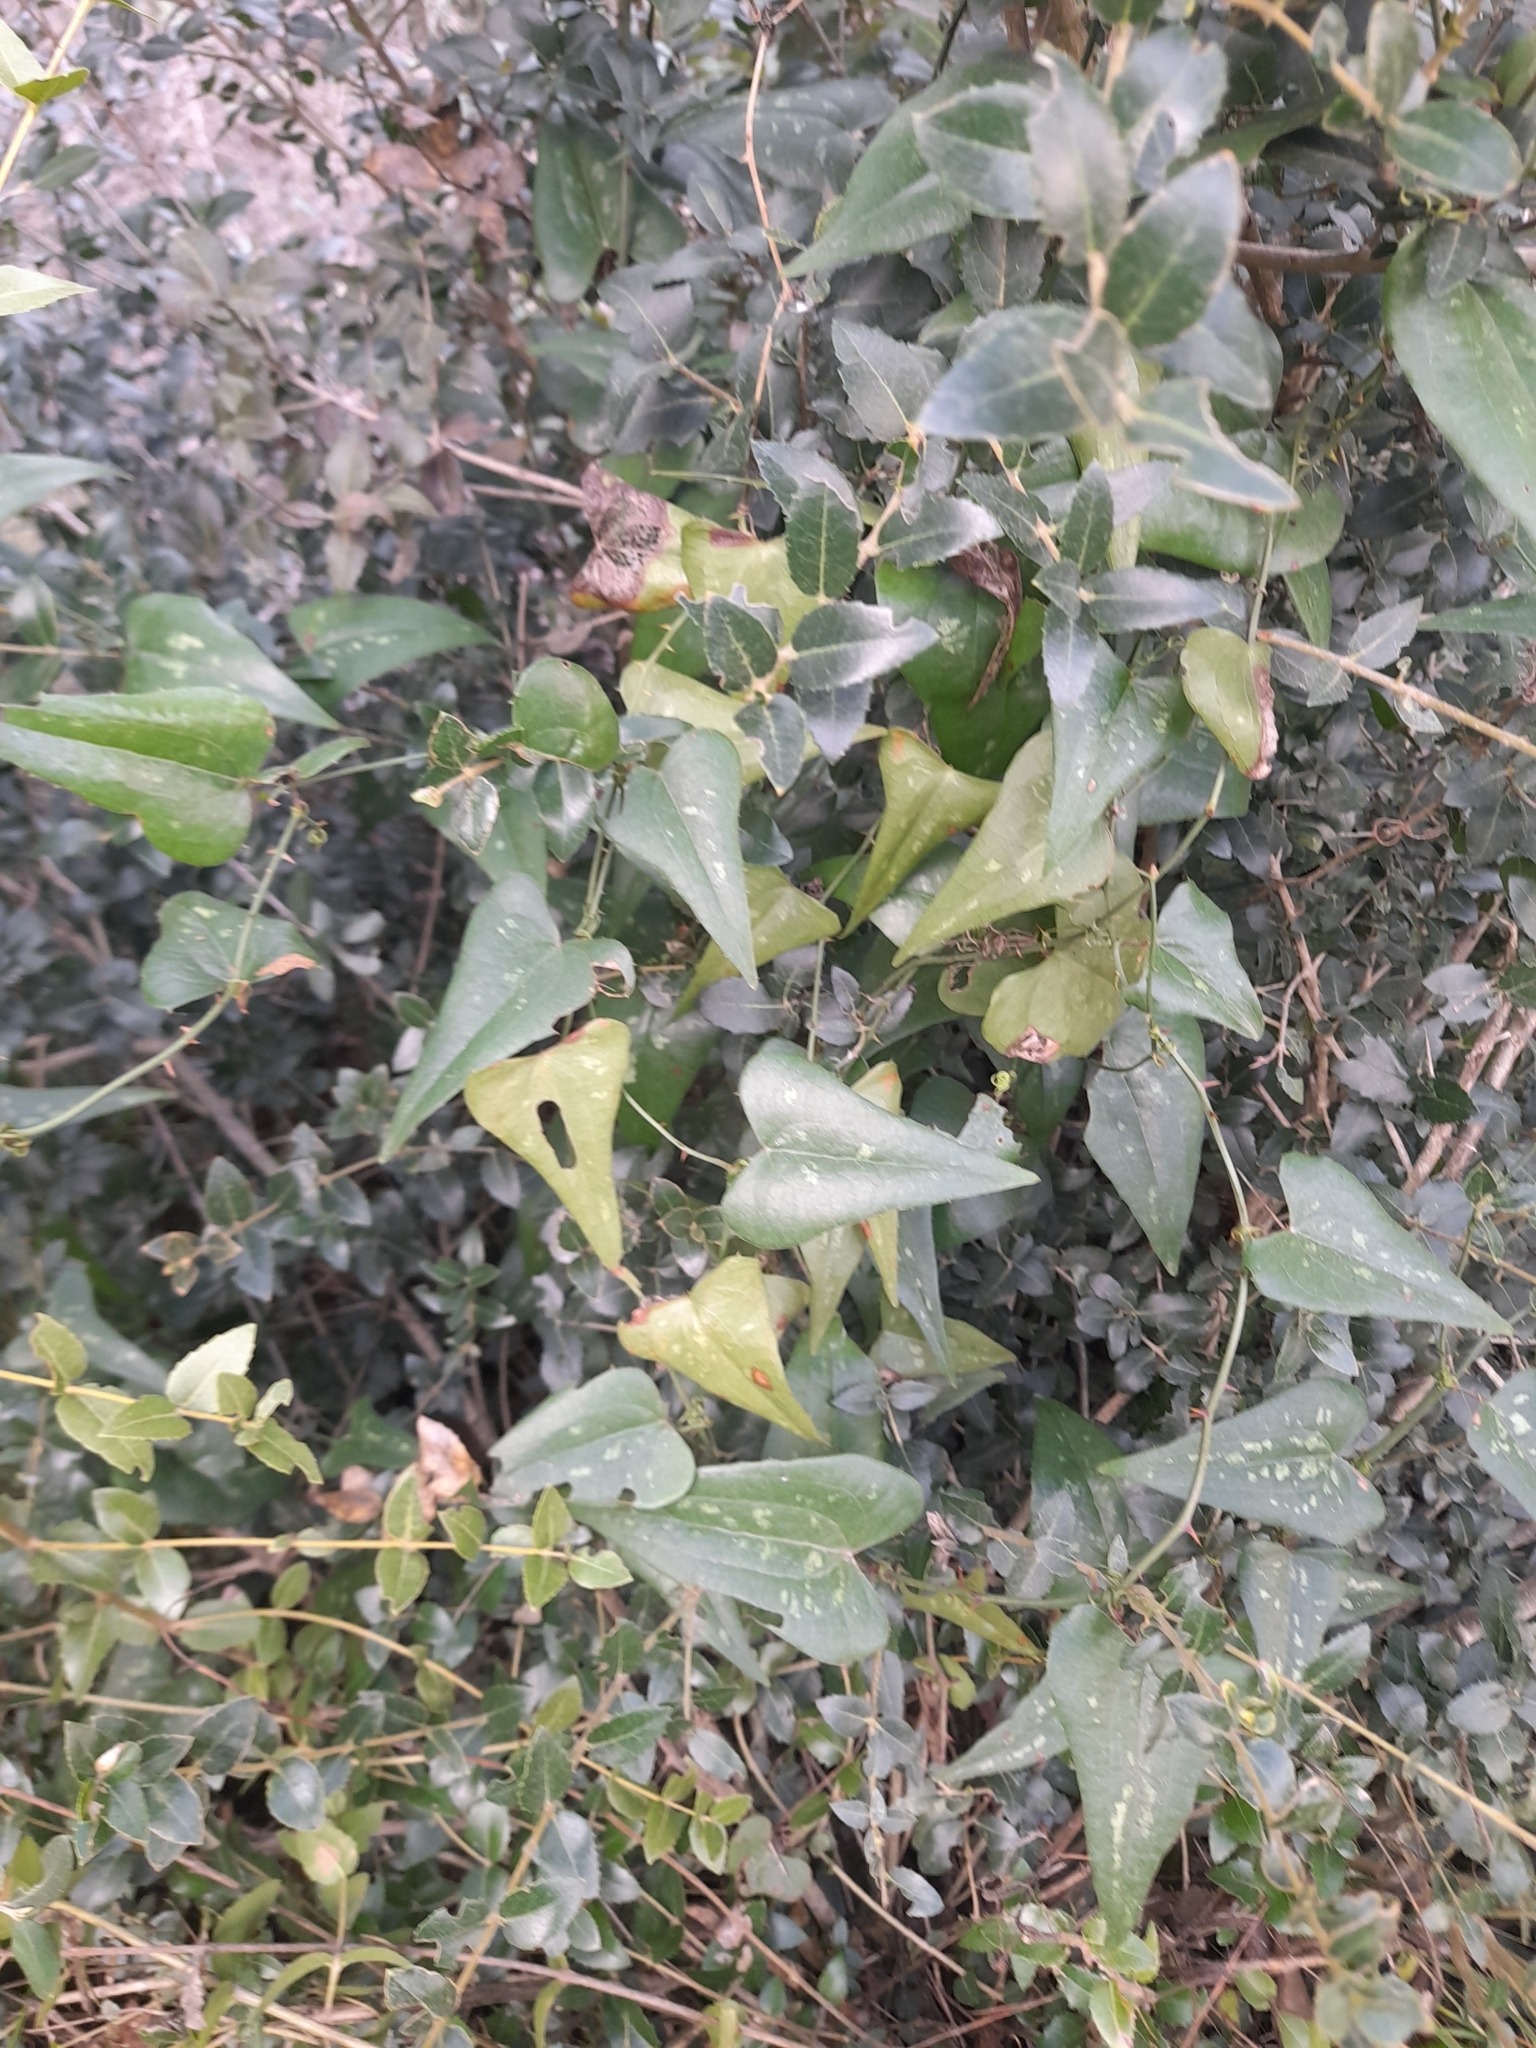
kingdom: Plantae
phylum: Tracheophyta
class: Liliopsida
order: Liliales
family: Smilacaceae
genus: Smilax
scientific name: Smilax aspera
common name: Common smilax
